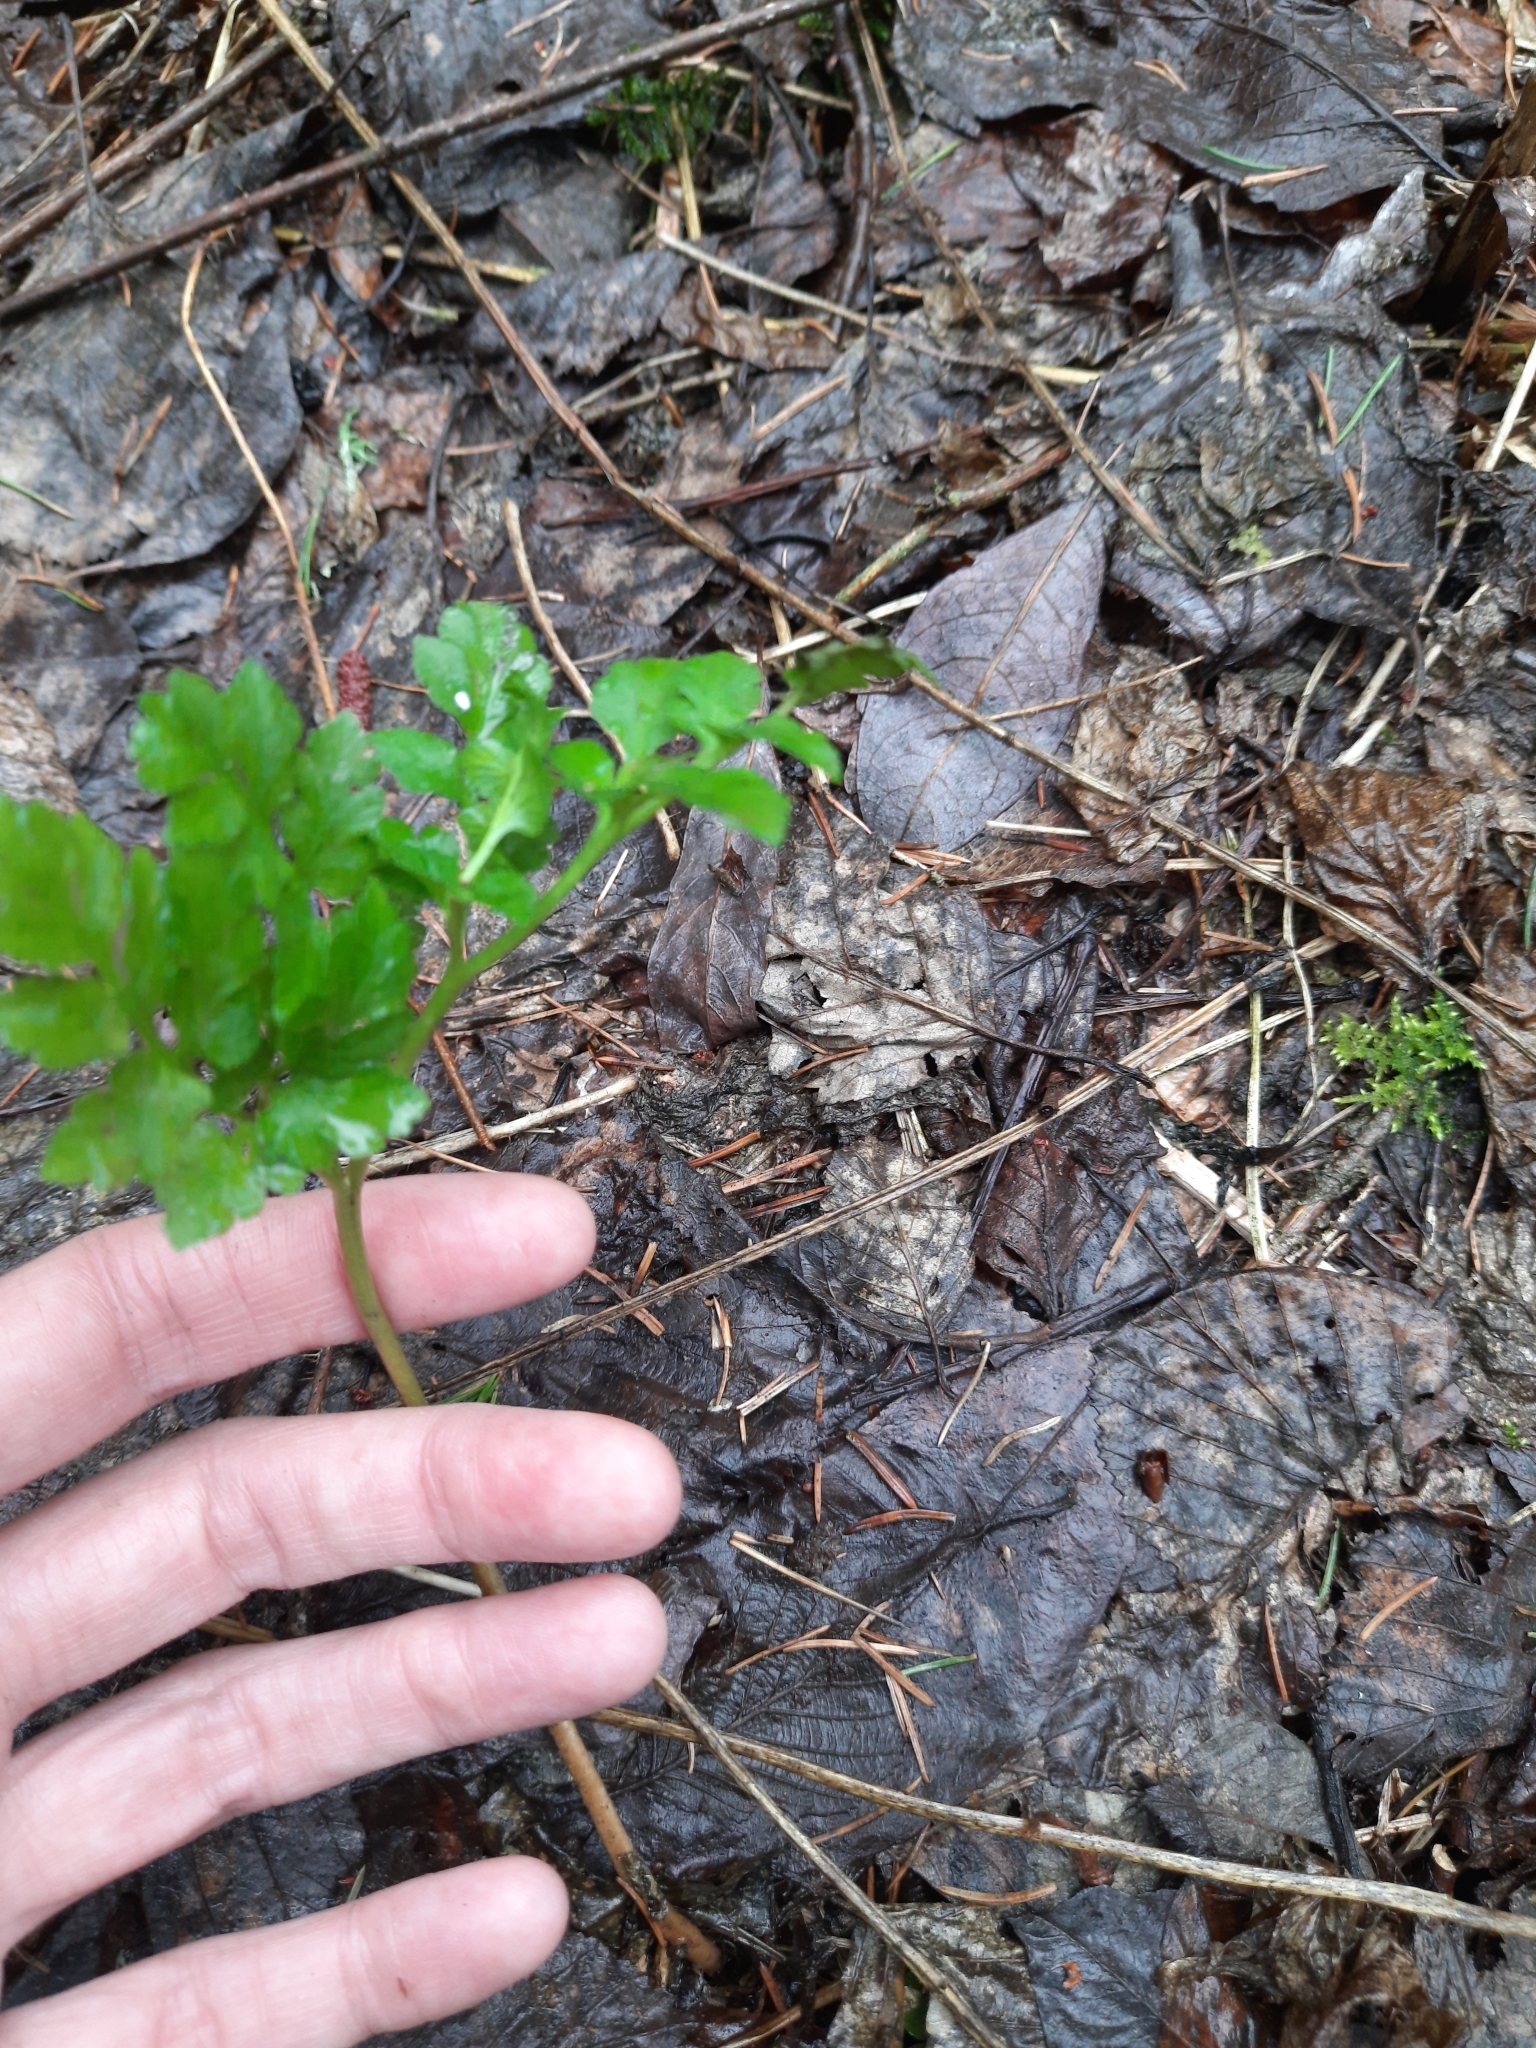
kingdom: Plantae
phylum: Tracheophyta
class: Polypodiopsida
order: Ophioglossales
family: Ophioglossaceae
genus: Sceptridium
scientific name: Sceptridium multifidum
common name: Leathery grape fern
